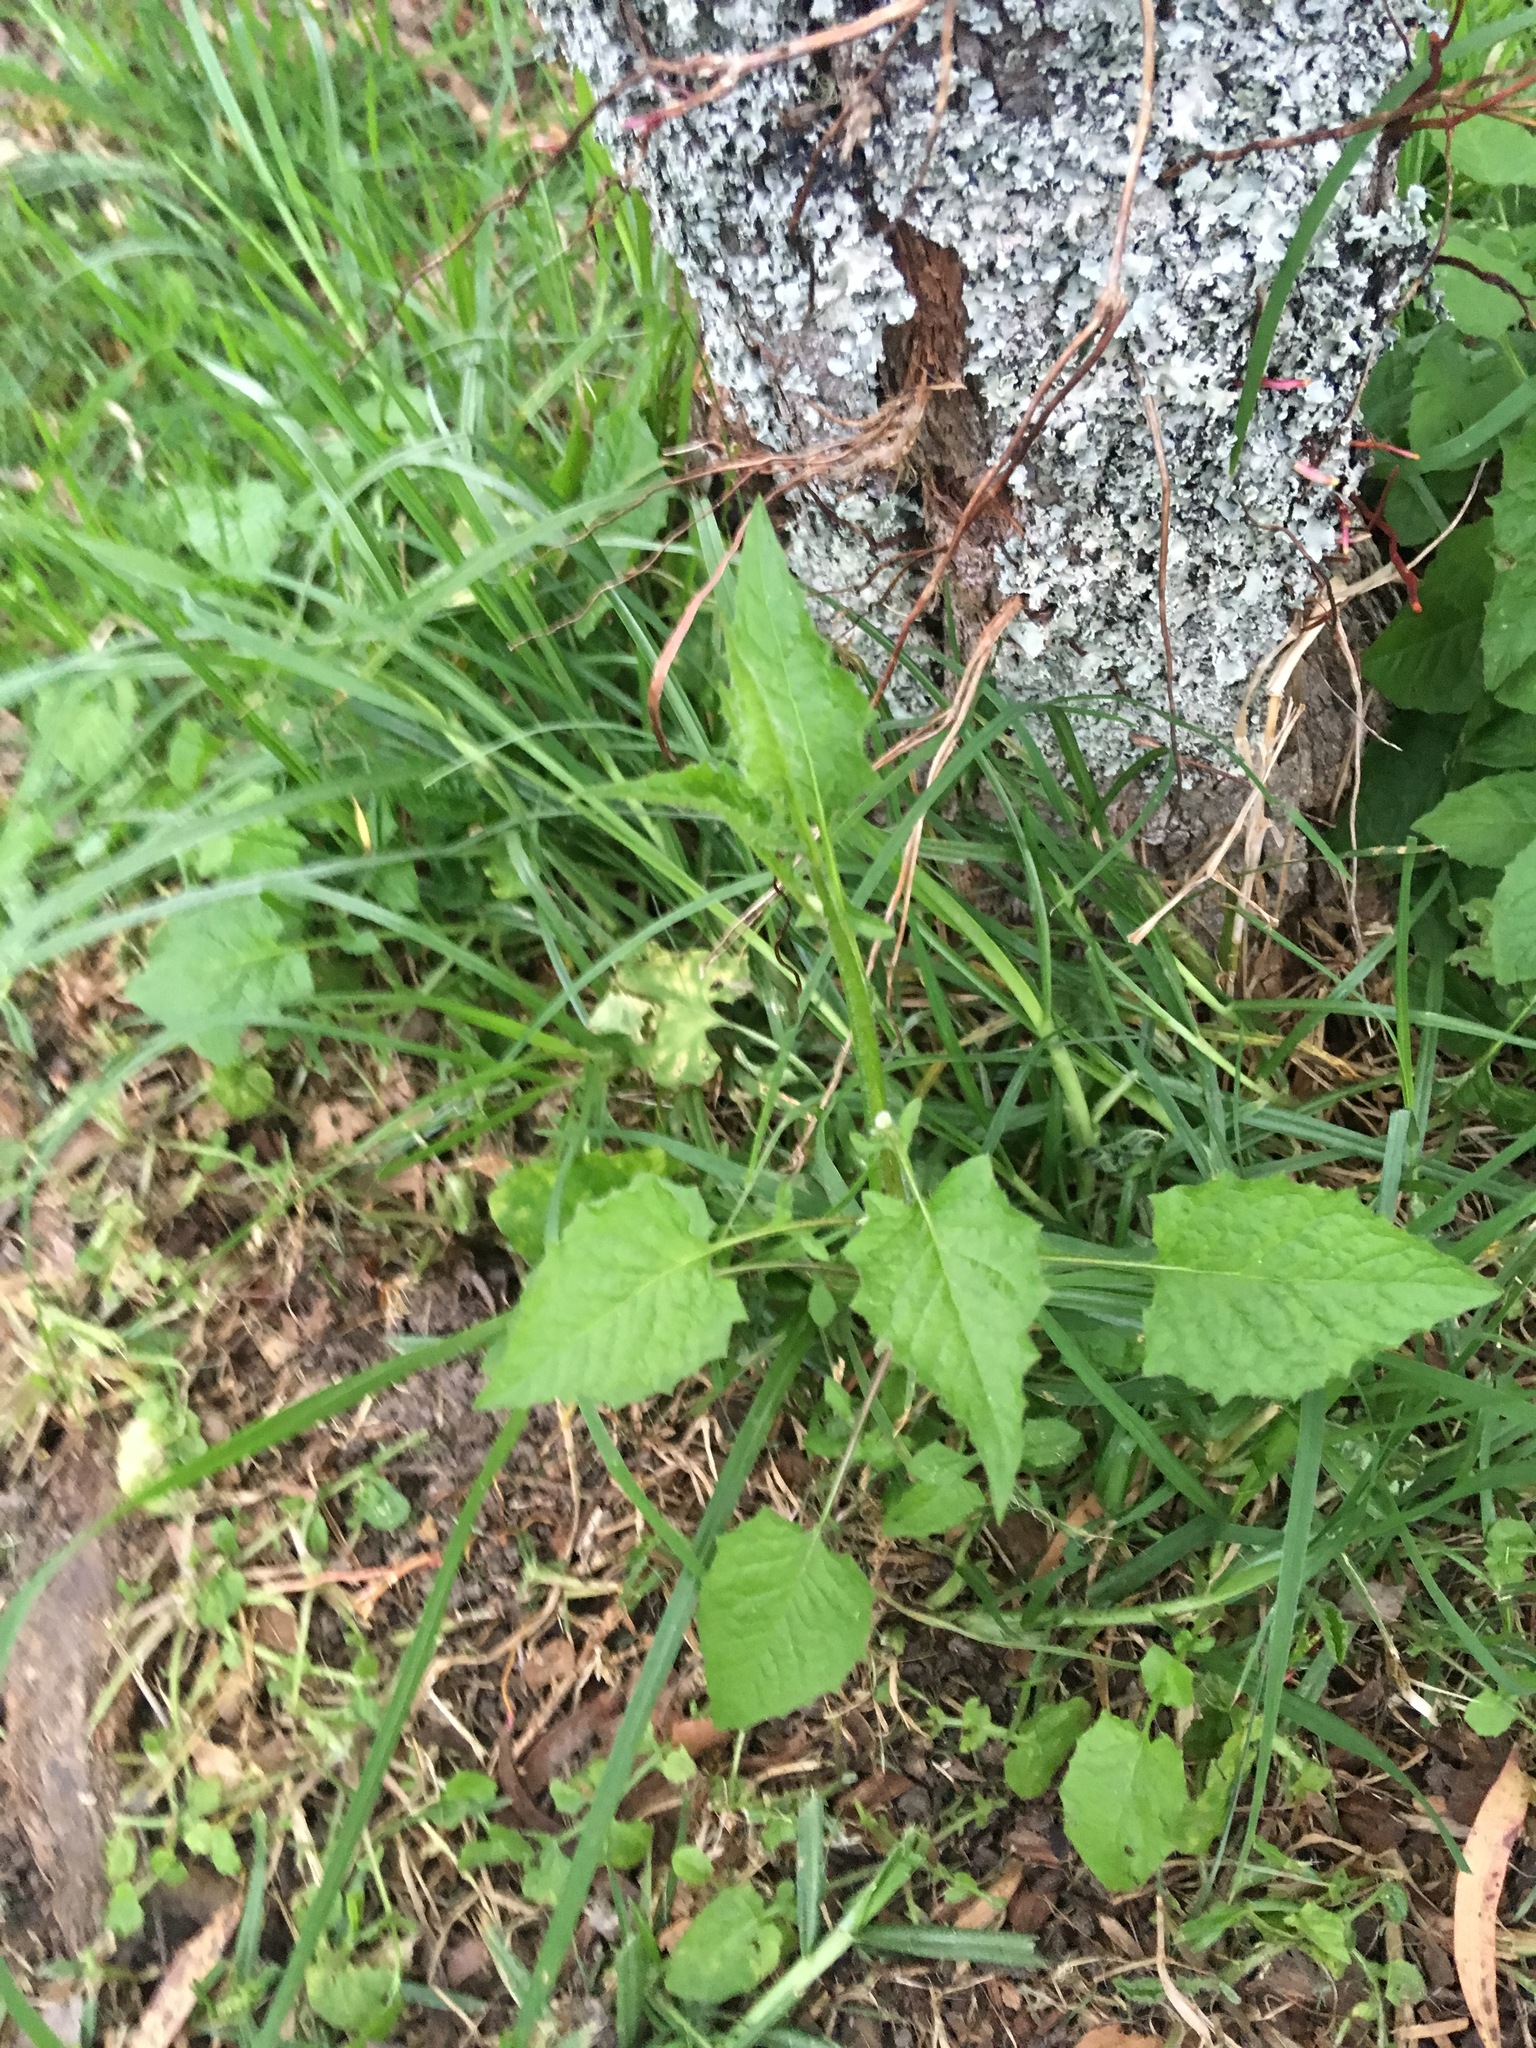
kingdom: Plantae
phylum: Tracheophyta
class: Magnoliopsida
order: Asterales
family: Asteraceae
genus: Lapsana
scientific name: Lapsana communis
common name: Nipplewort
